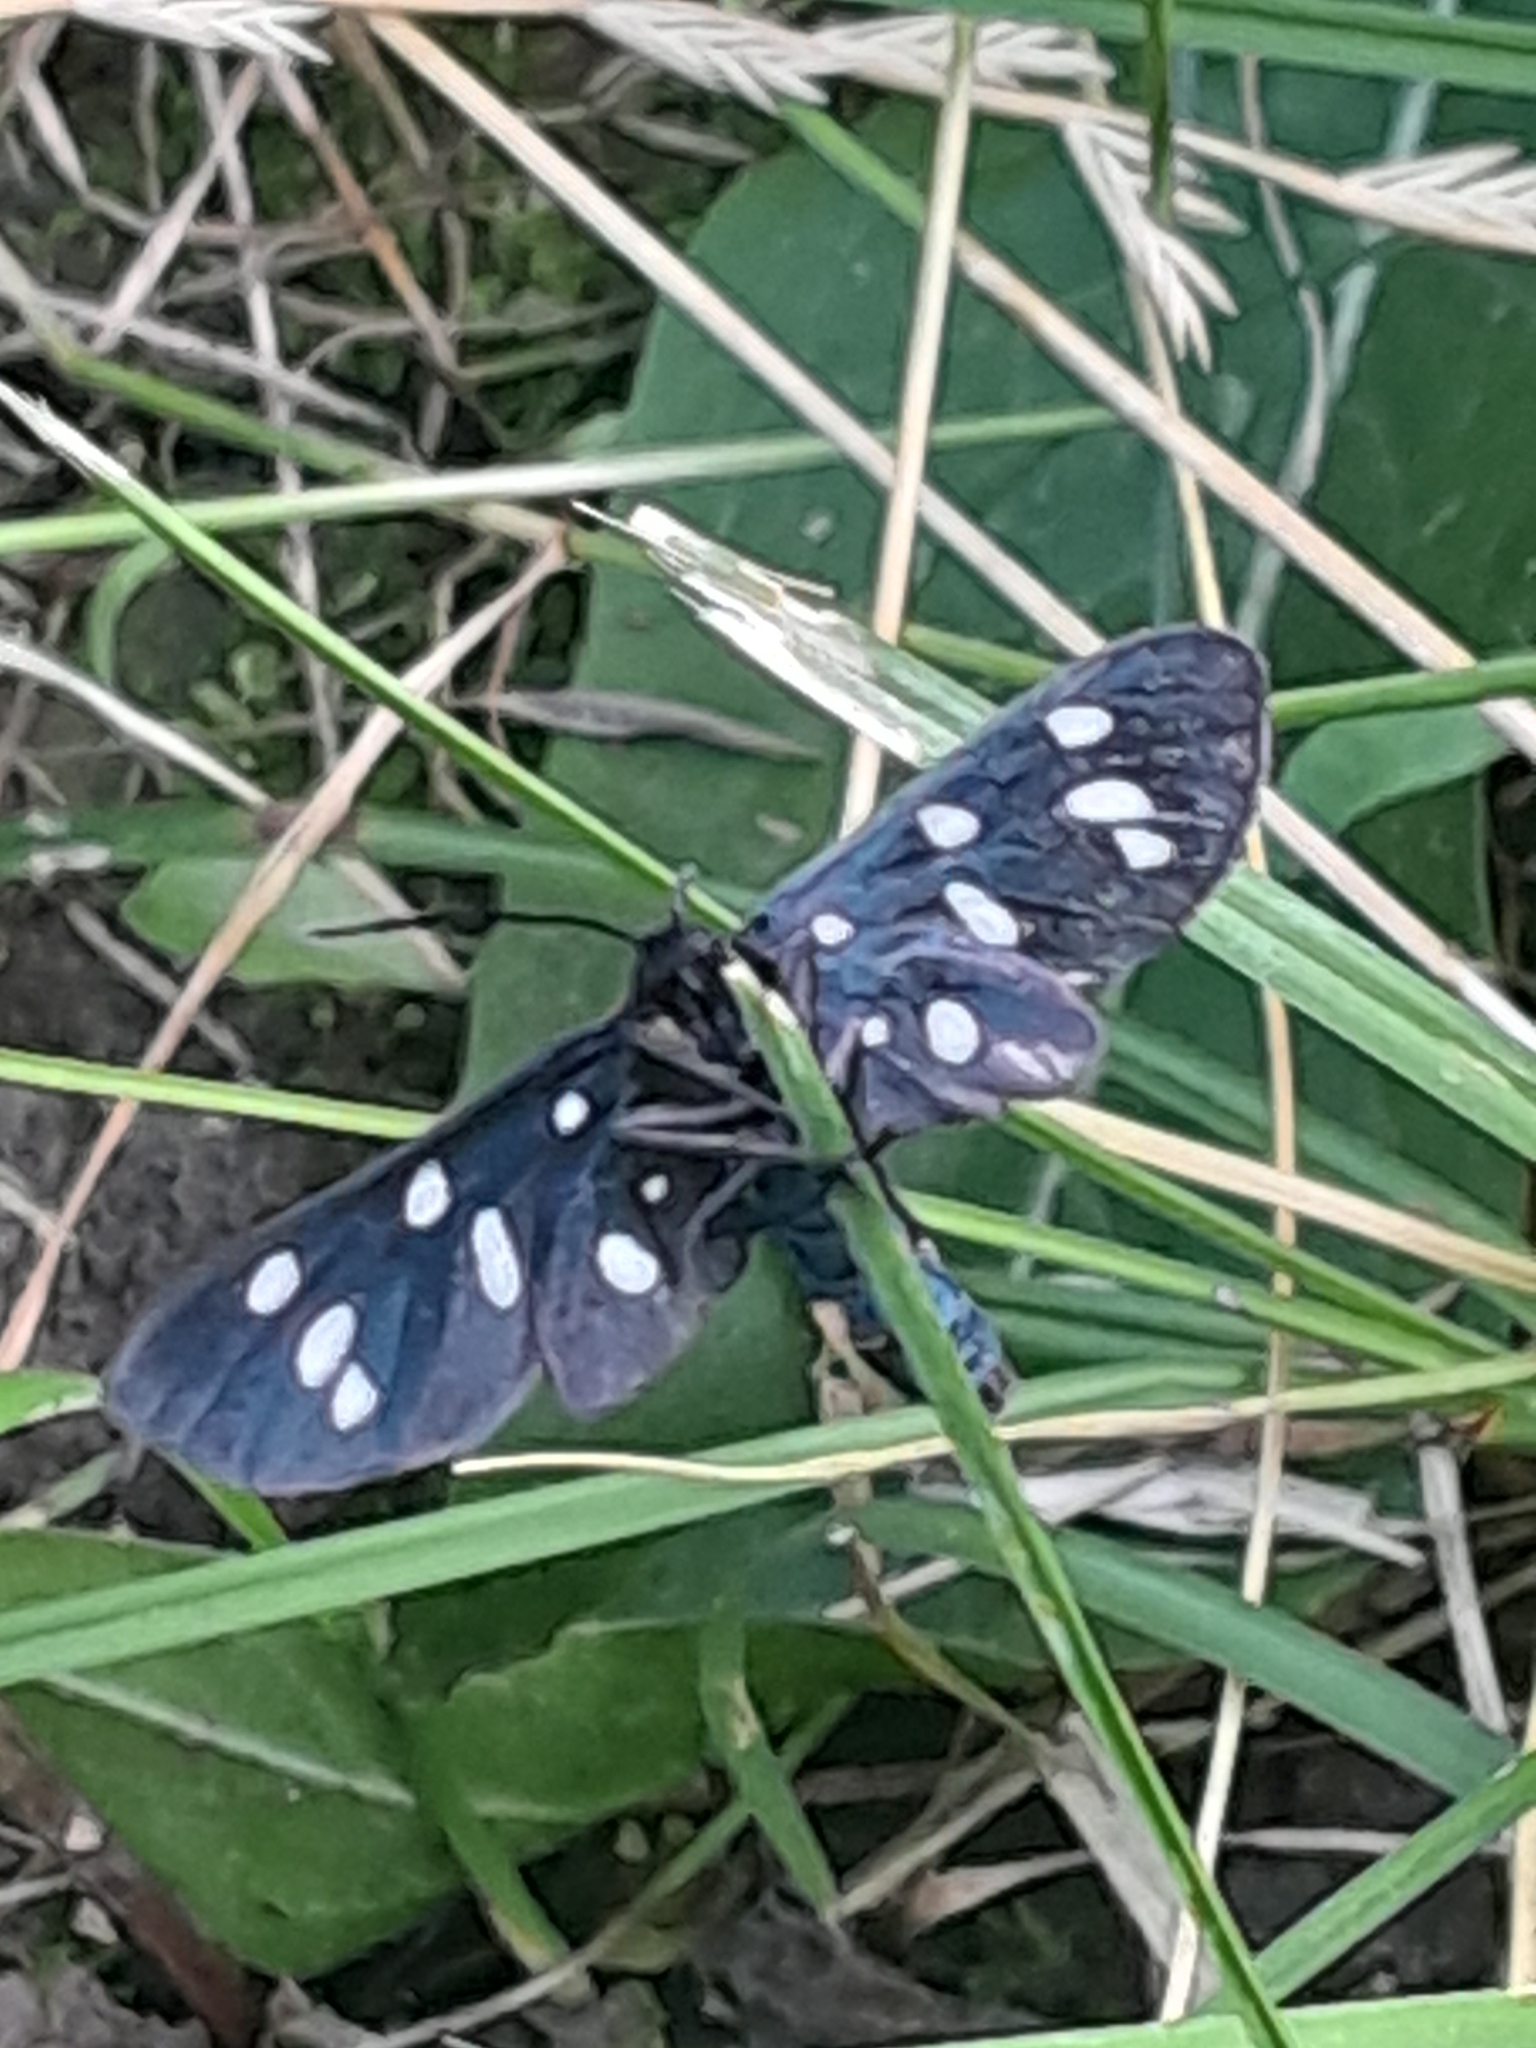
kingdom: Animalia
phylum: Arthropoda
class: Insecta
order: Lepidoptera
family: Erebidae
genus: Amata
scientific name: Amata phegea
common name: Nine-spotted
